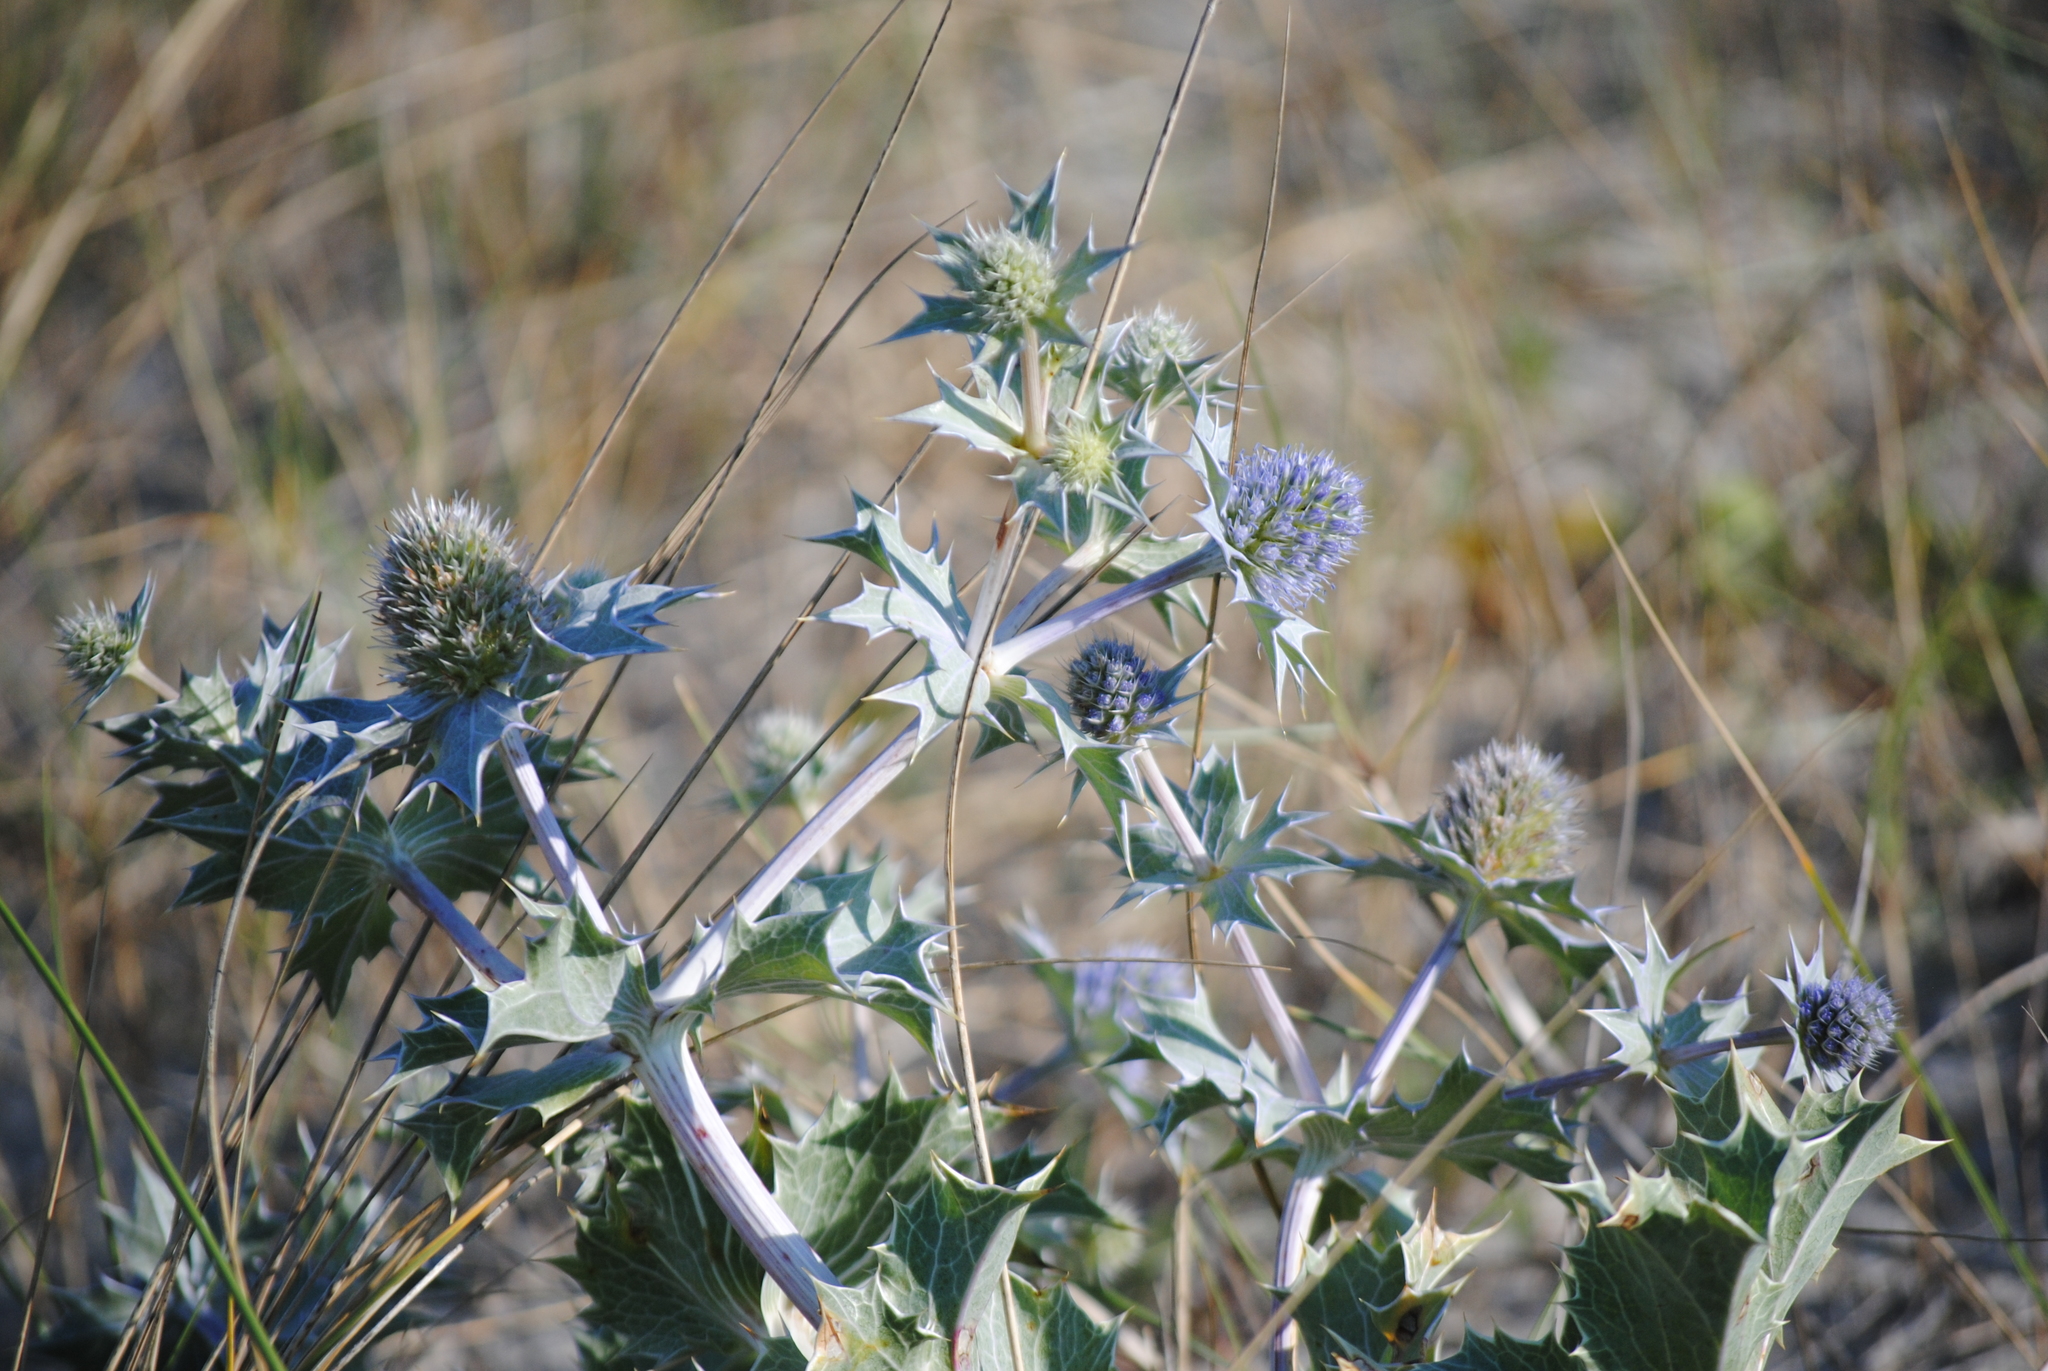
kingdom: Plantae
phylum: Tracheophyta
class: Magnoliopsida
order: Apiales
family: Apiaceae
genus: Eryngium
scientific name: Eryngium maritimum
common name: Sea-holly
